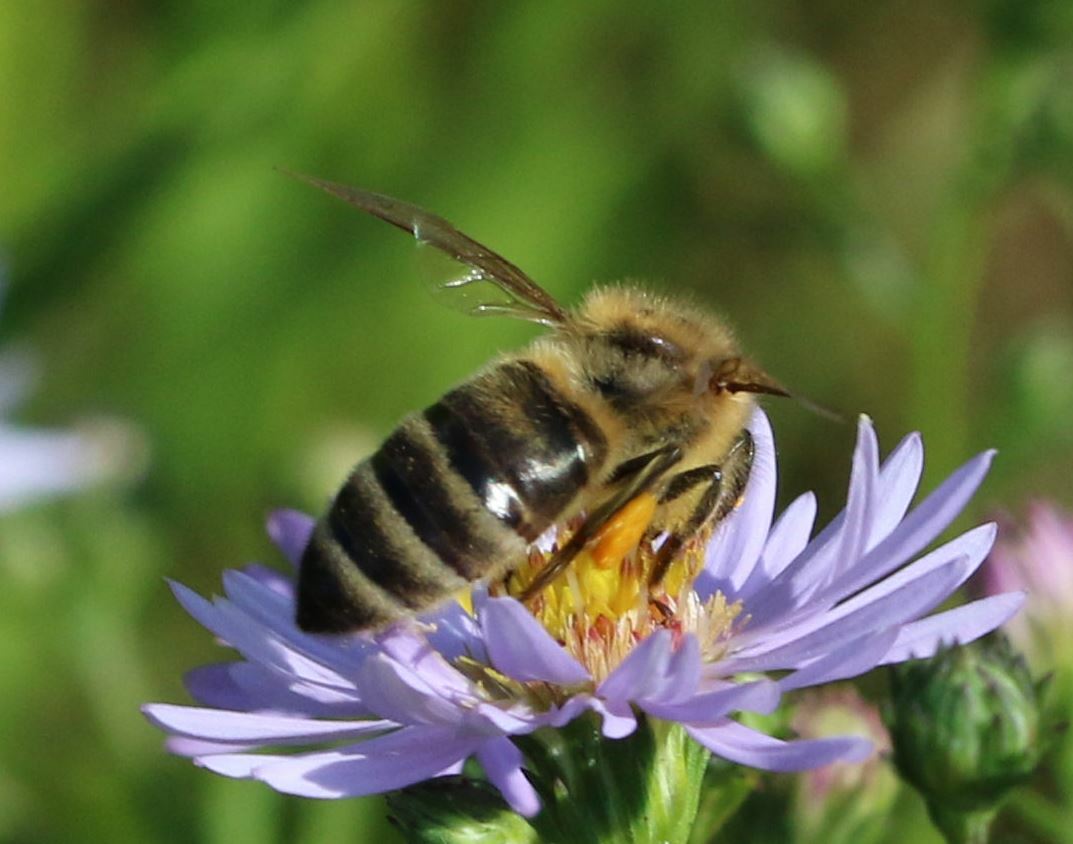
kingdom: Animalia
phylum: Arthropoda
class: Insecta
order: Hymenoptera
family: Apidae
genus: Apis
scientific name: Apis mellifera
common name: Honey bee
